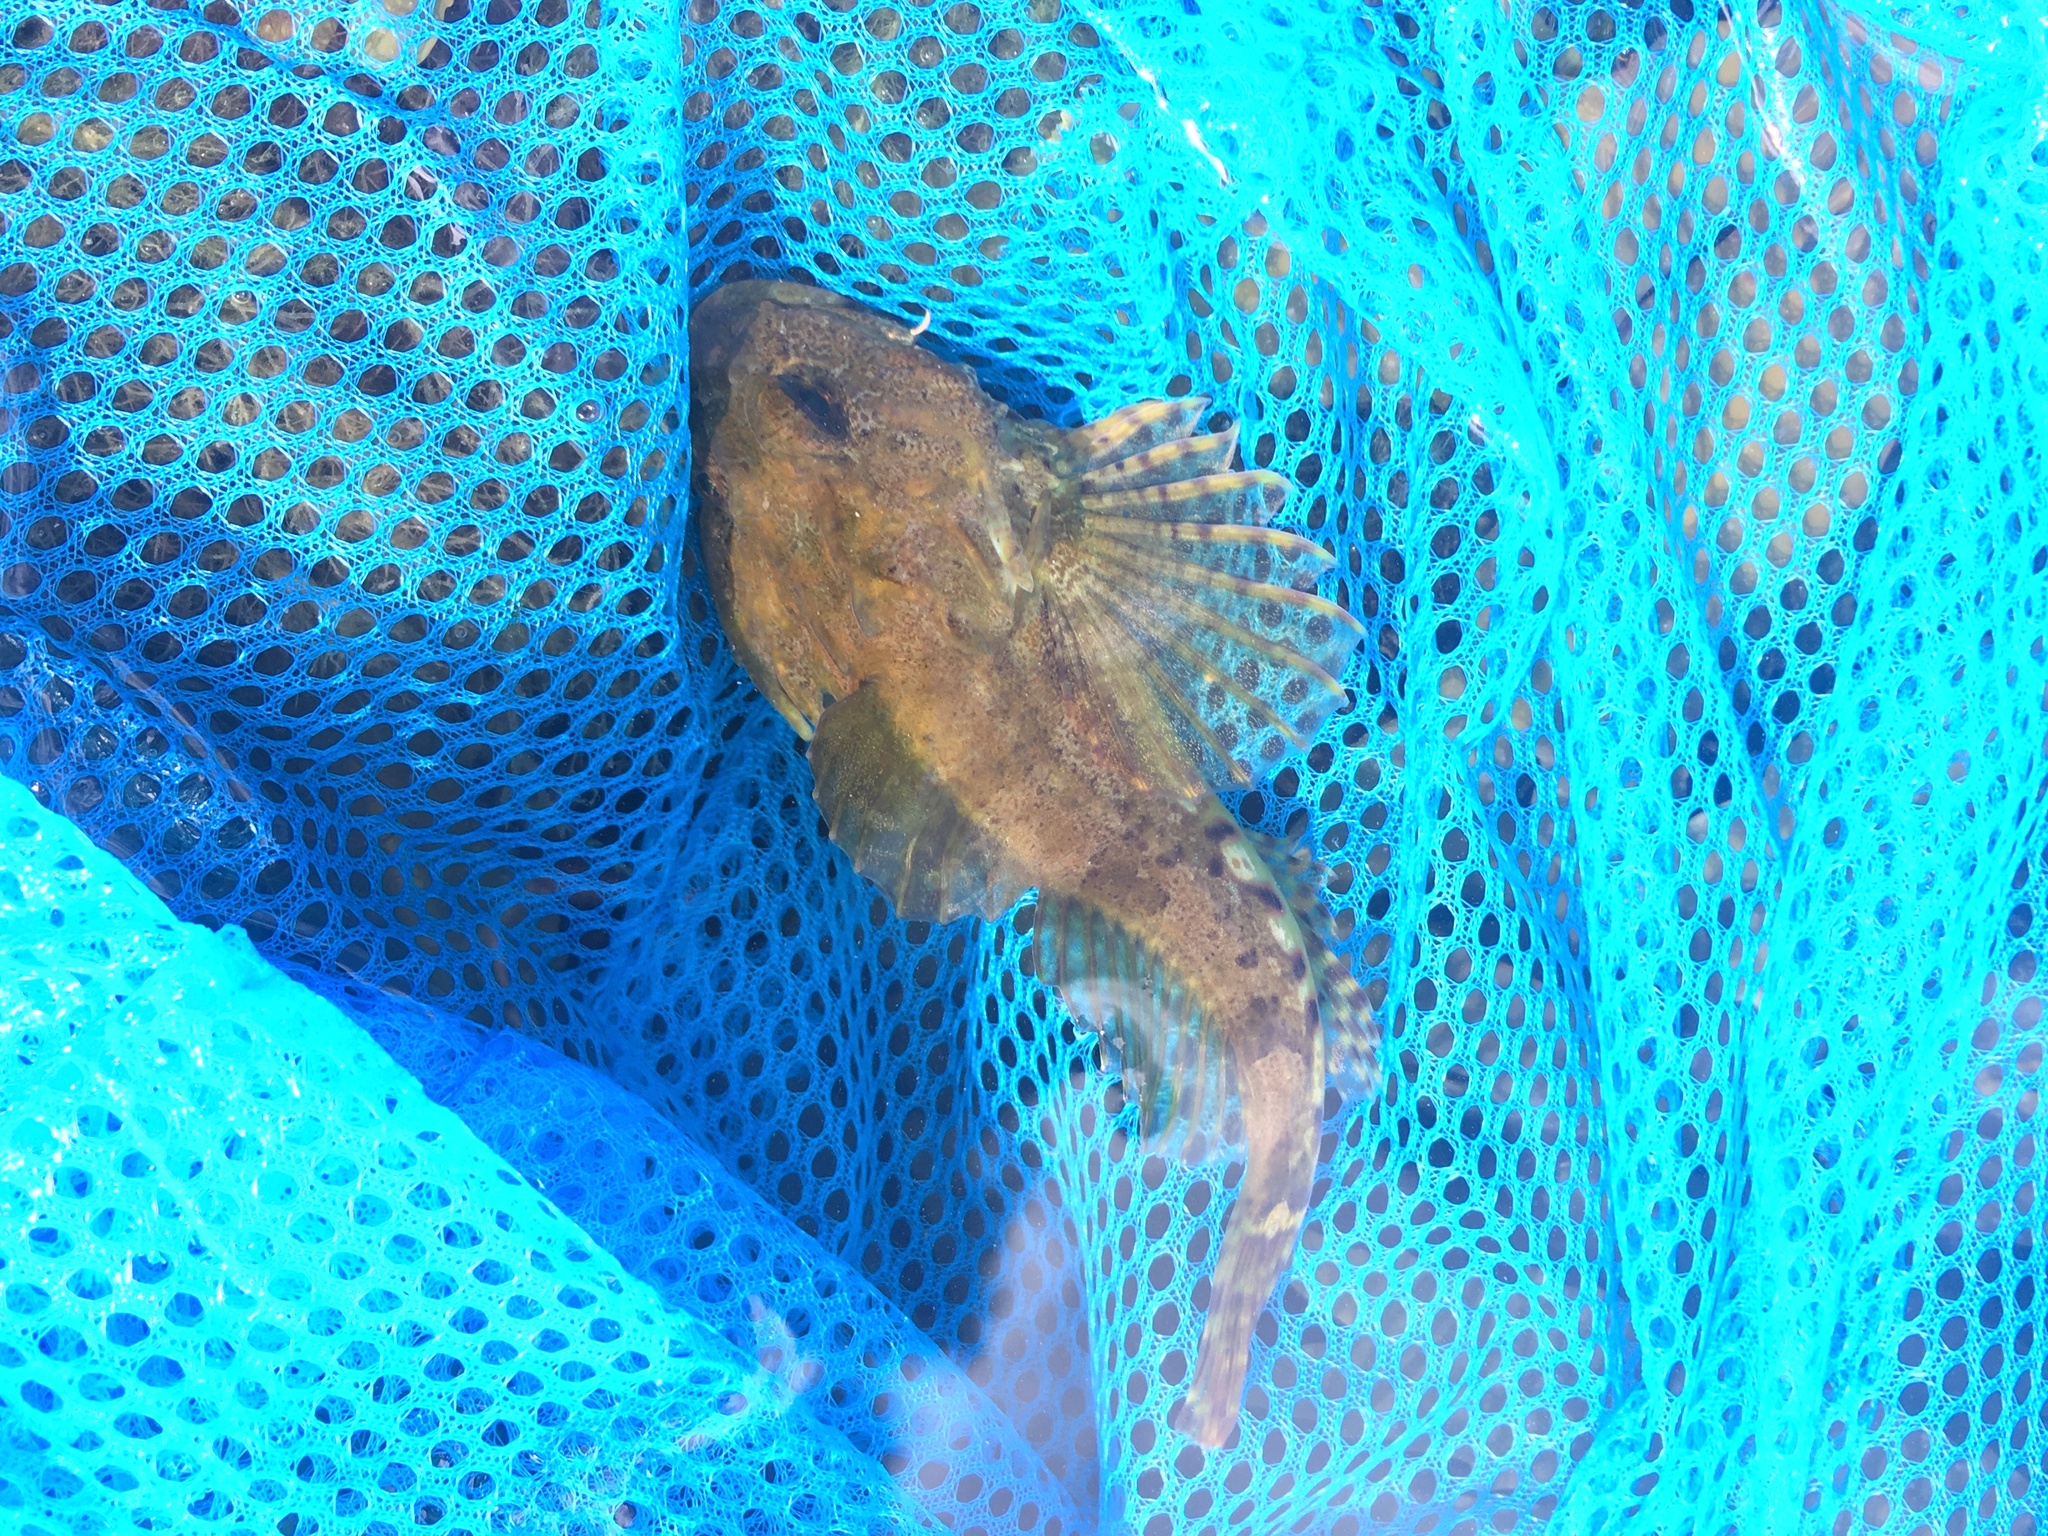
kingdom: Animalia
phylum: Chordata
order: Scorpaeniformes
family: Cottidae
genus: Taurulus
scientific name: Taurulus bubalis
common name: Sea scorpion
